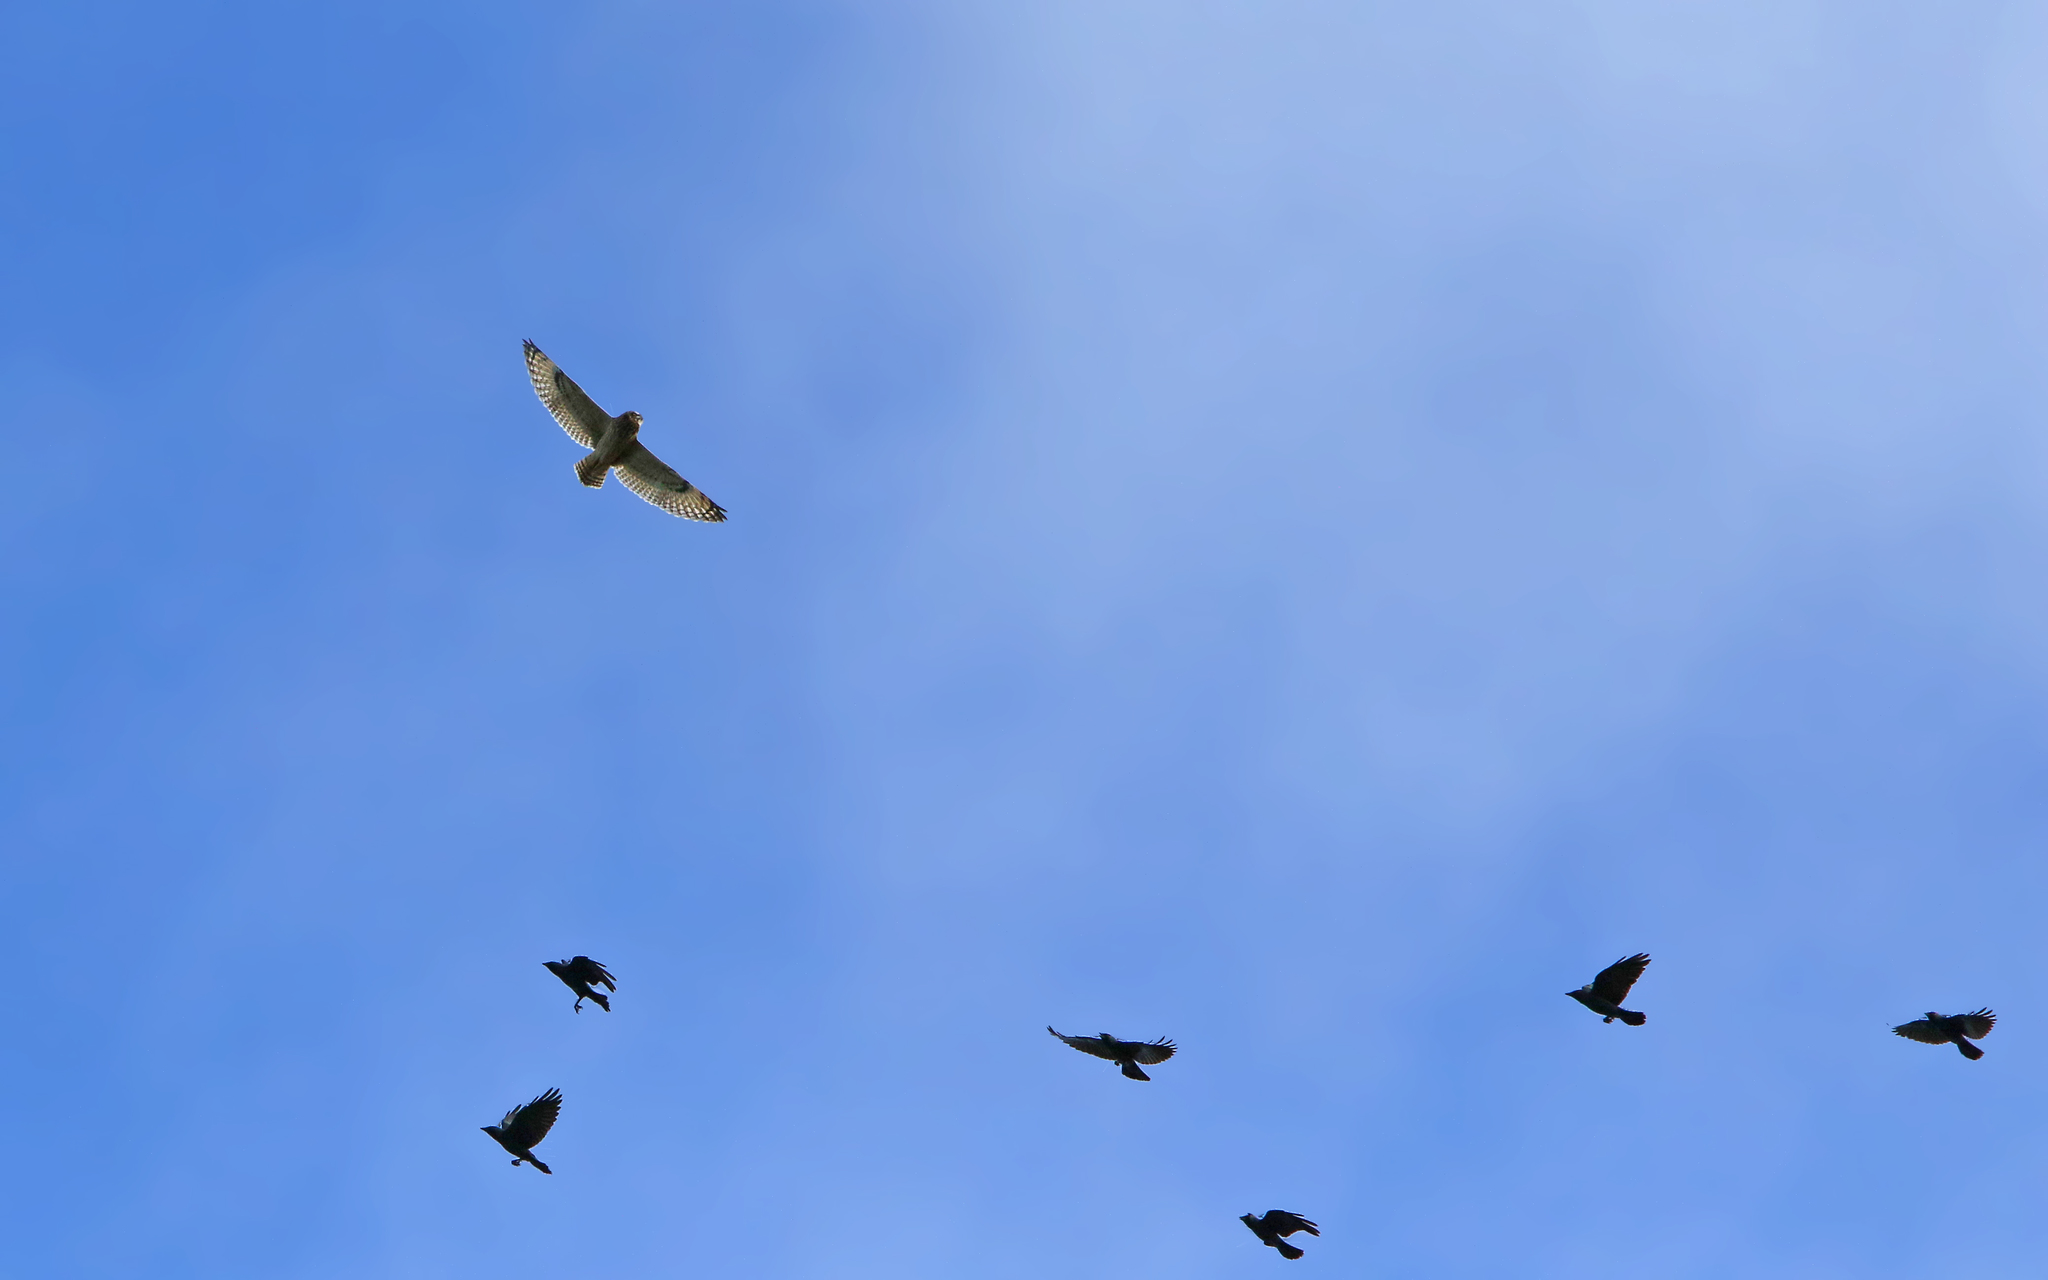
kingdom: Animalia
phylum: Chordata
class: Aves
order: Strigiformes
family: Strigidae
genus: Asio
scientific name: Asio flammeus
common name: Short-eared owl
